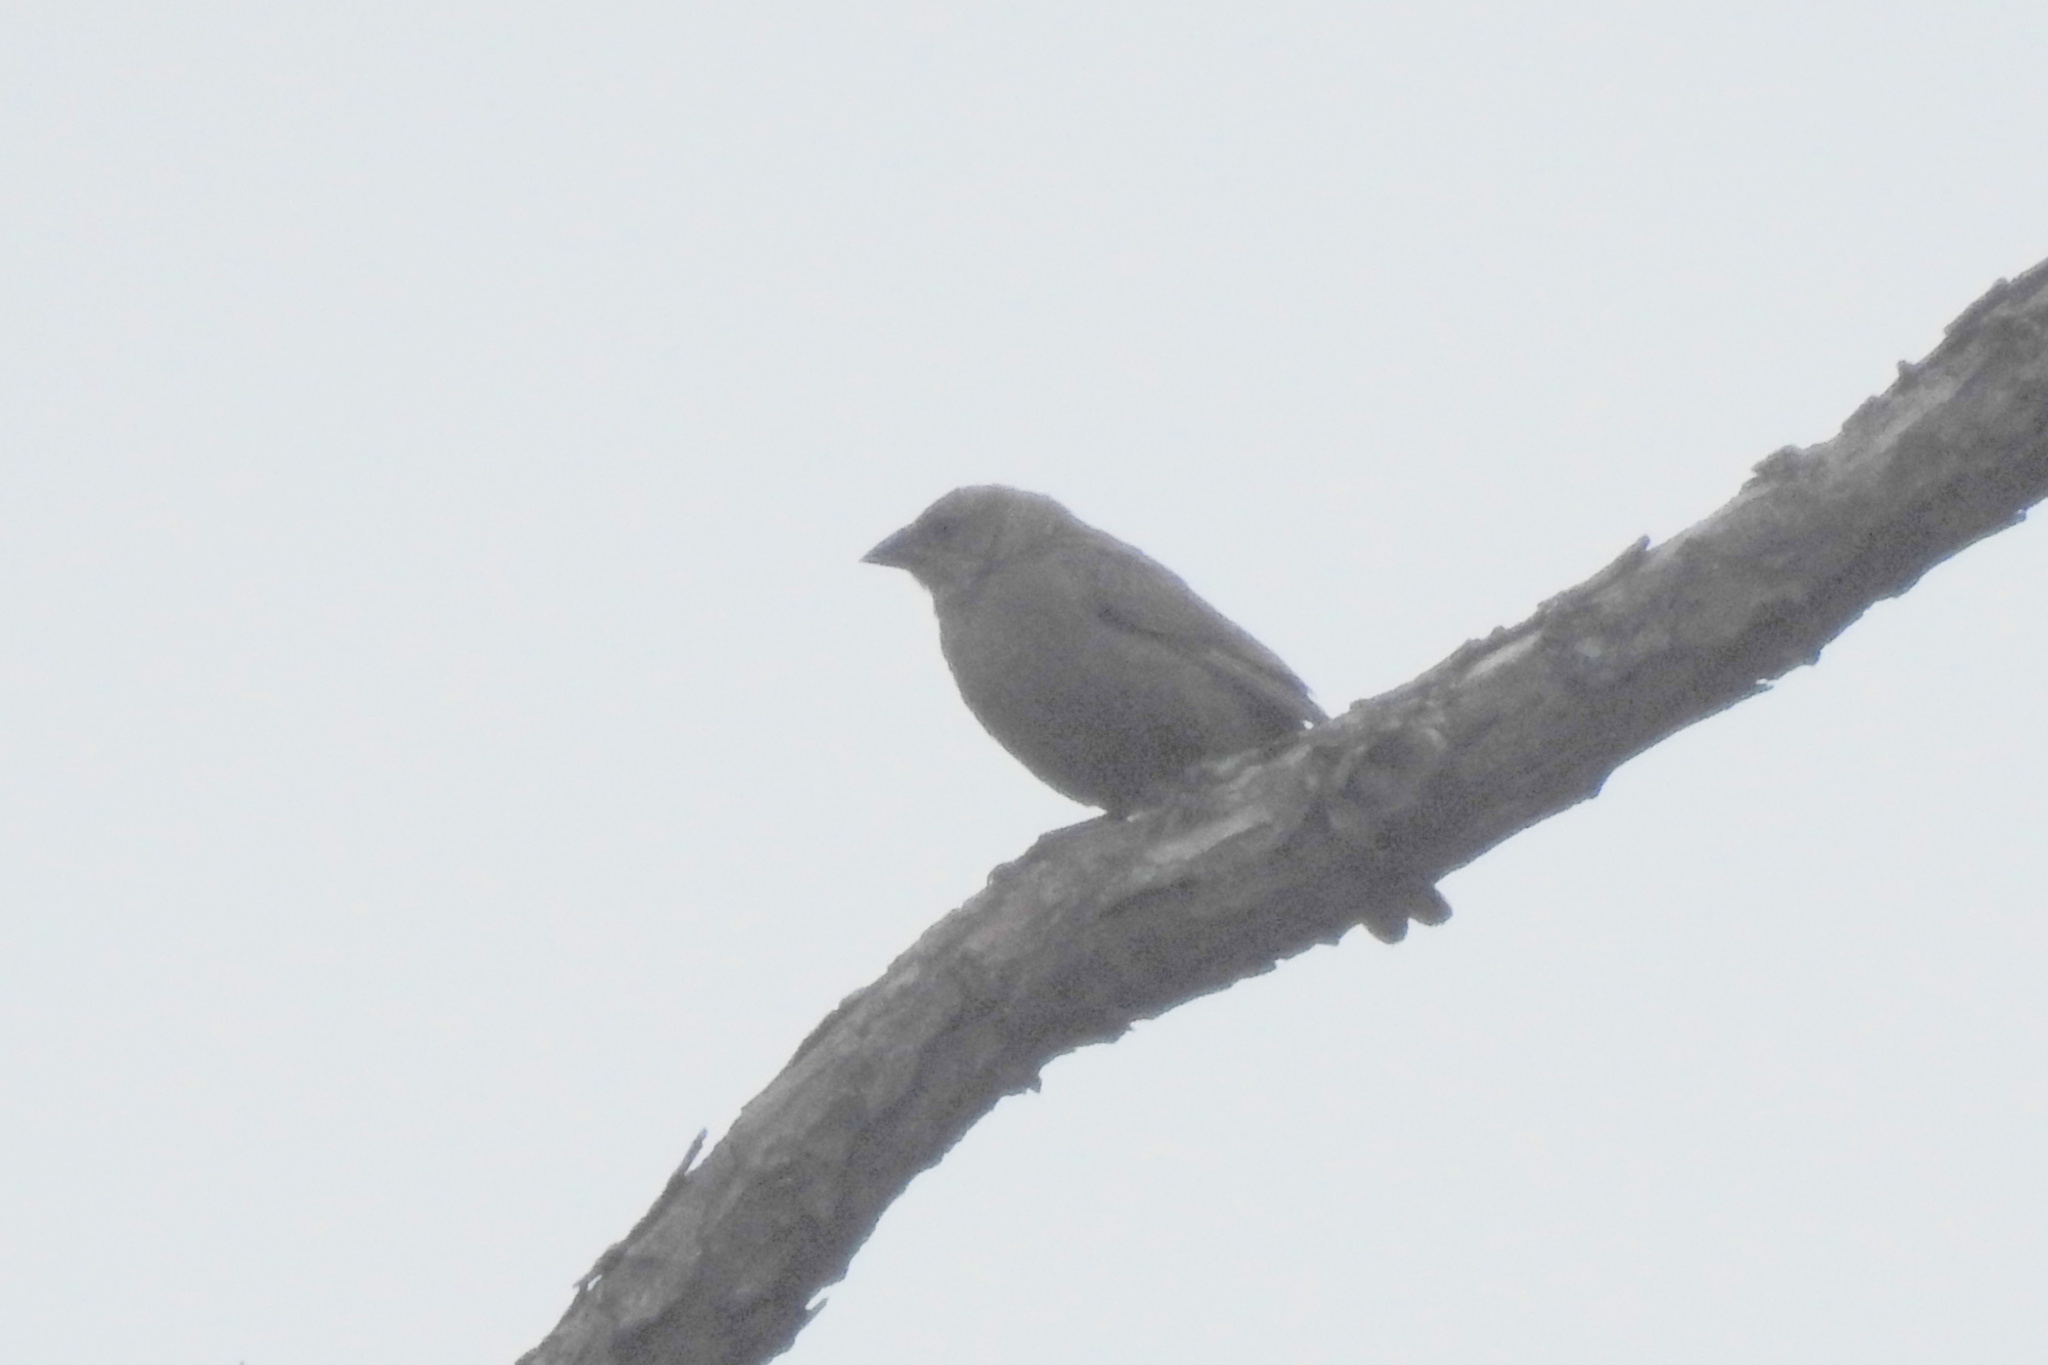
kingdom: Animalia
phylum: Chordata
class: Aves
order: Passeriformes
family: Icteridae
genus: Molothrus
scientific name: Molothrus ater
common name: Brown-headed cowbird
